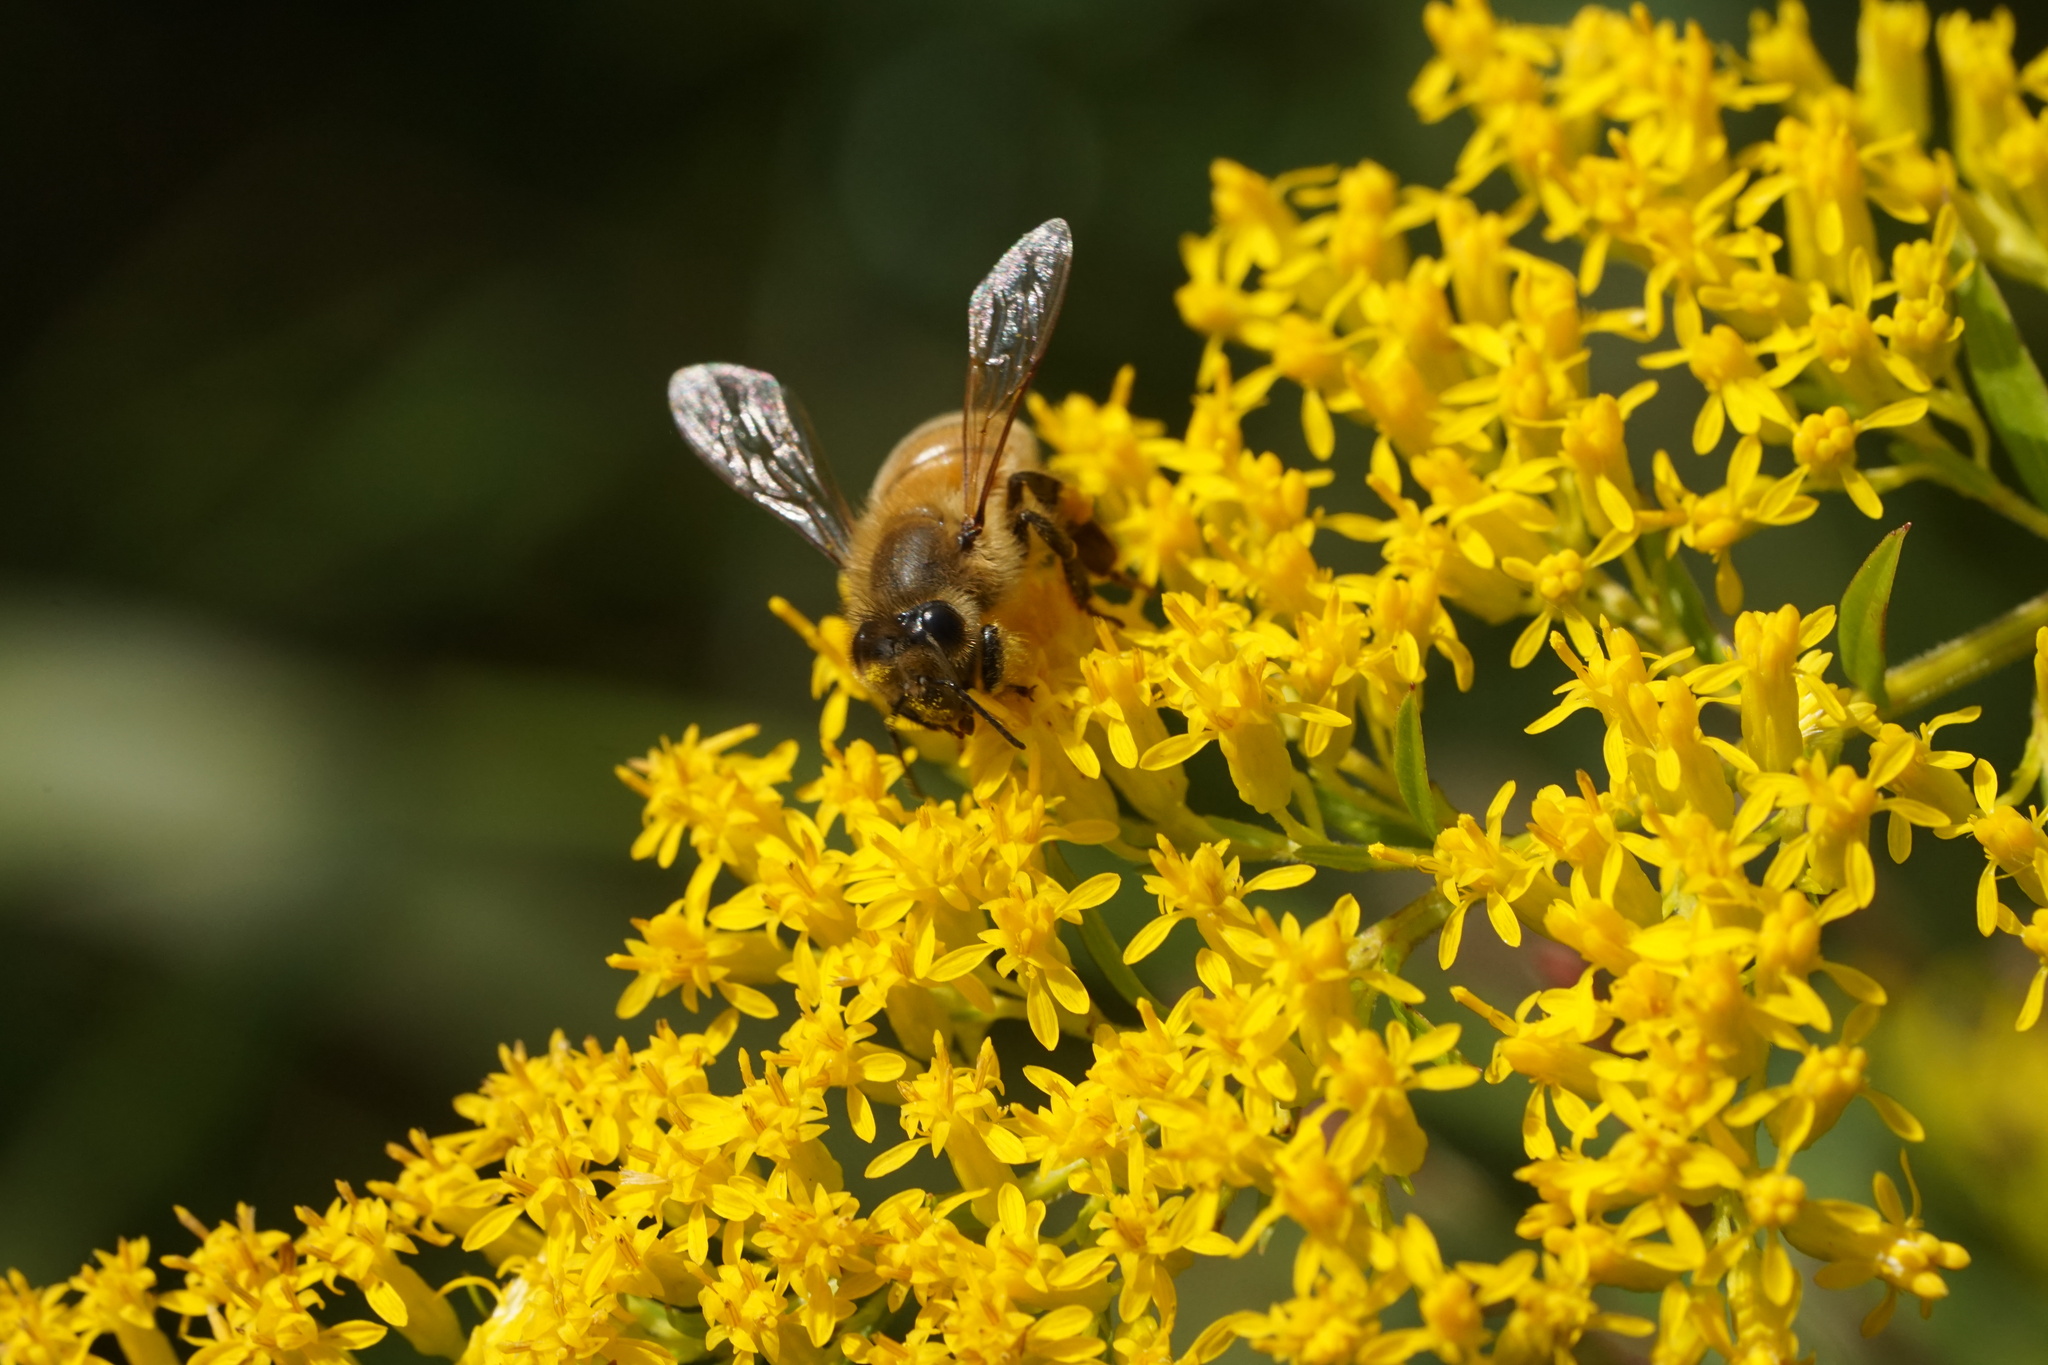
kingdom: Animalia
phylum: Arthropoda
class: Insecta
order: Hymenoptera
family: Apidae
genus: Apis
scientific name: Apis mellifera
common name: Honey bee
